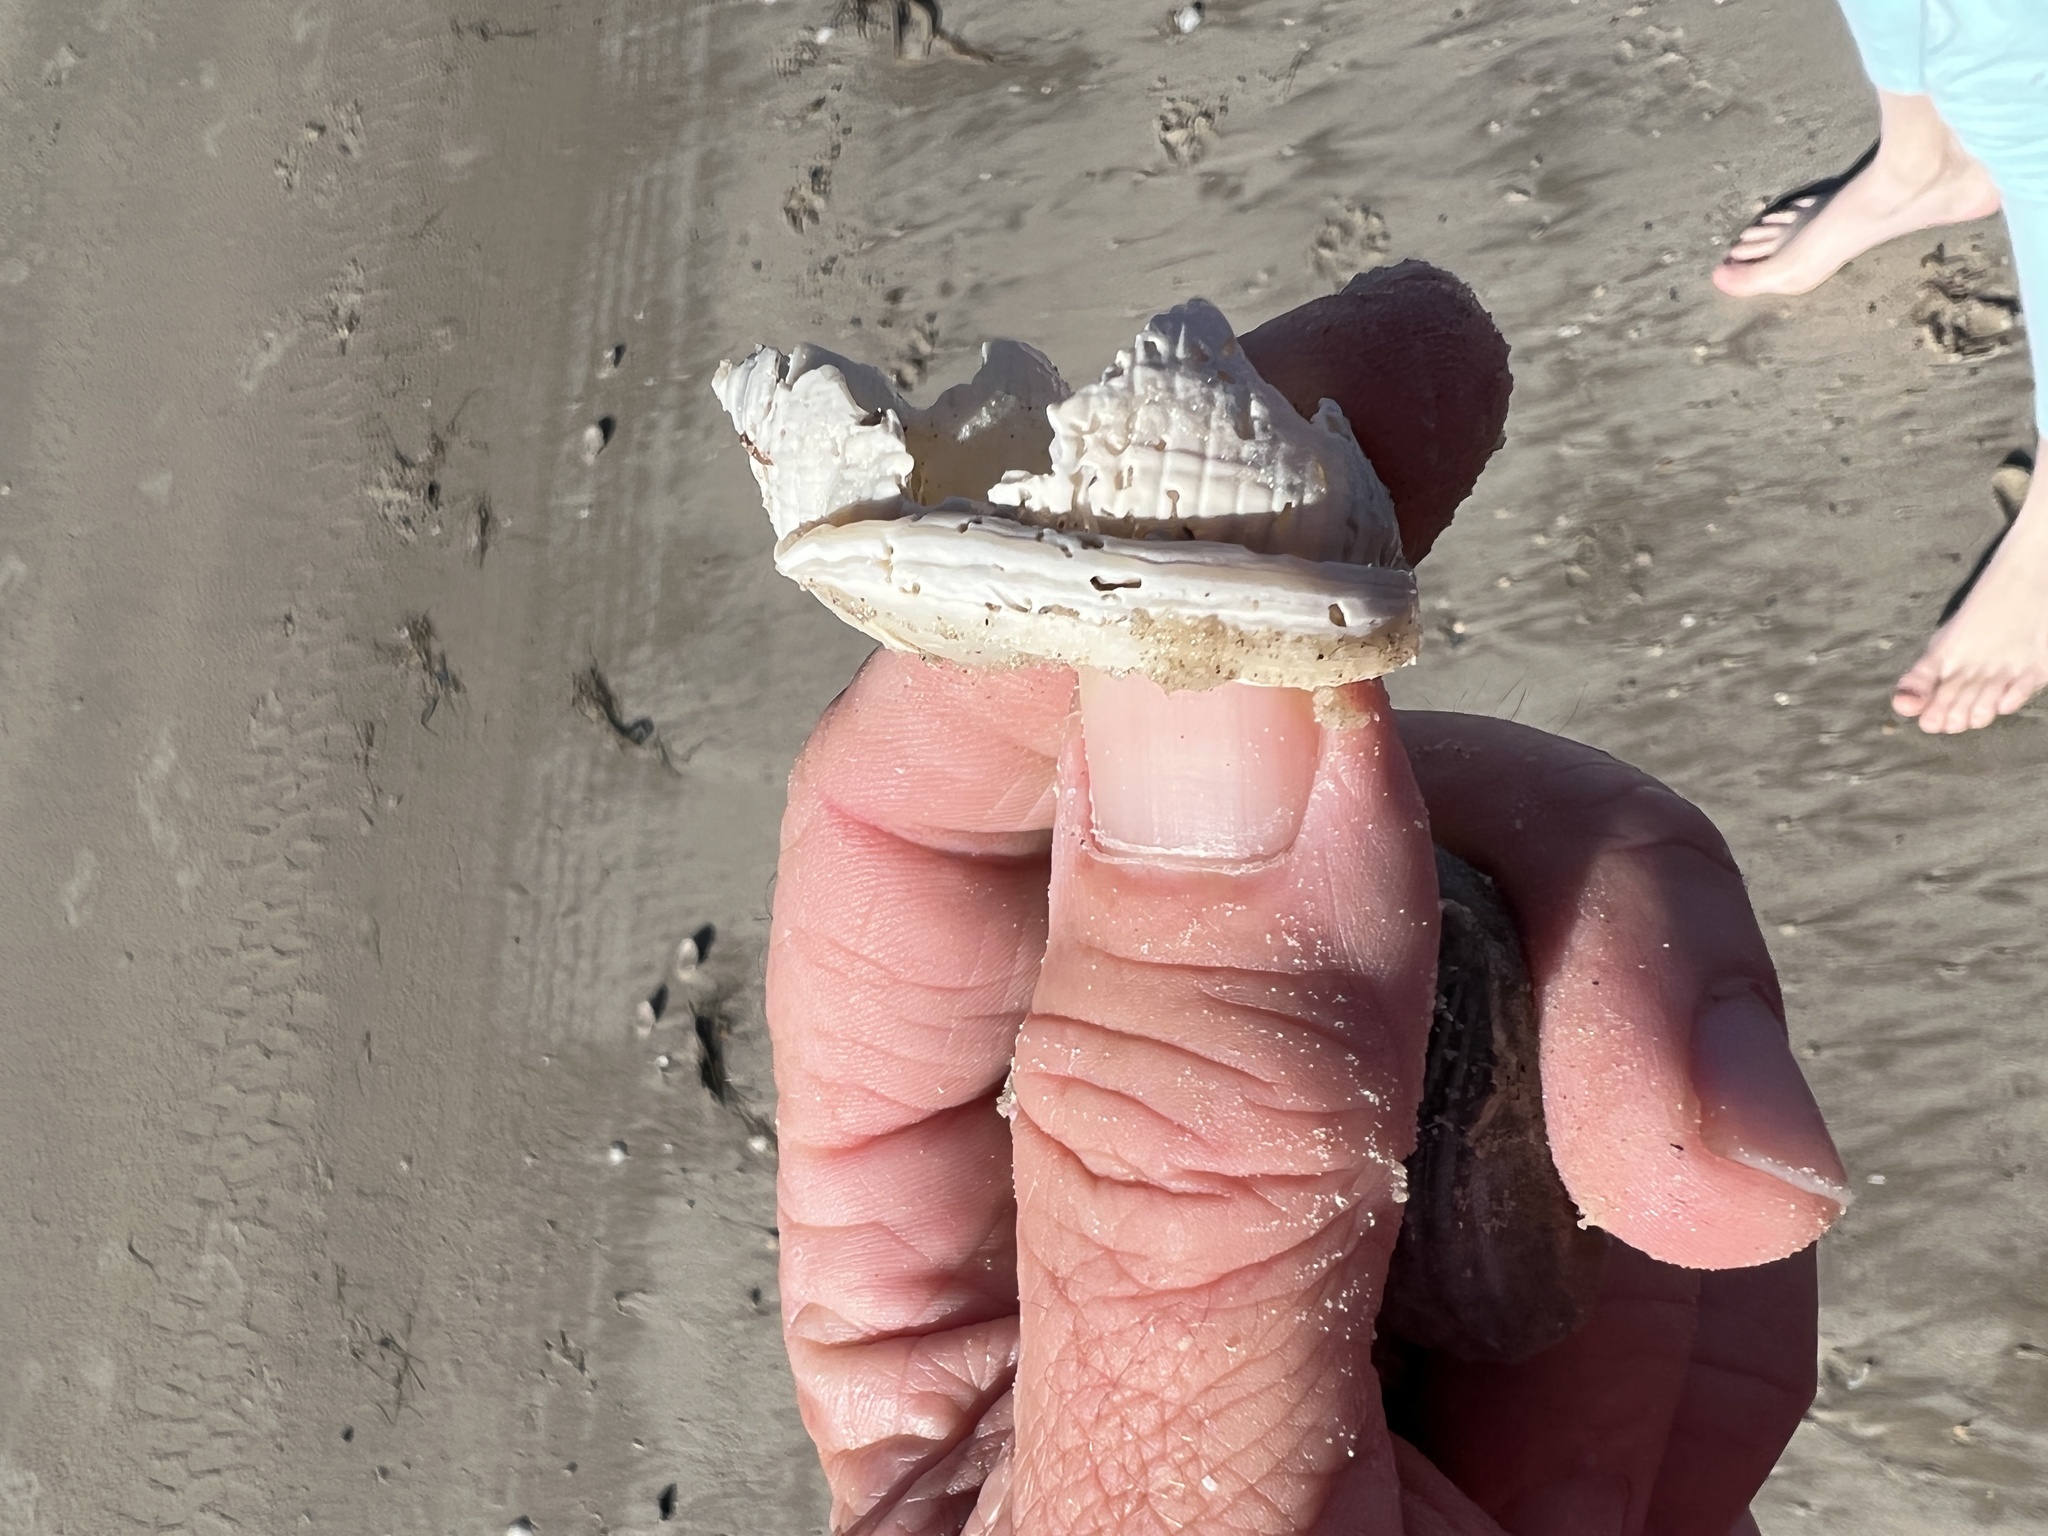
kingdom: Animalia
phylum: Mollusca
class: Gastropoda
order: Littorinimorpha
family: Cassidae
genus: Semicassis
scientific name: Semicassis granulata
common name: Scotch bonnet
